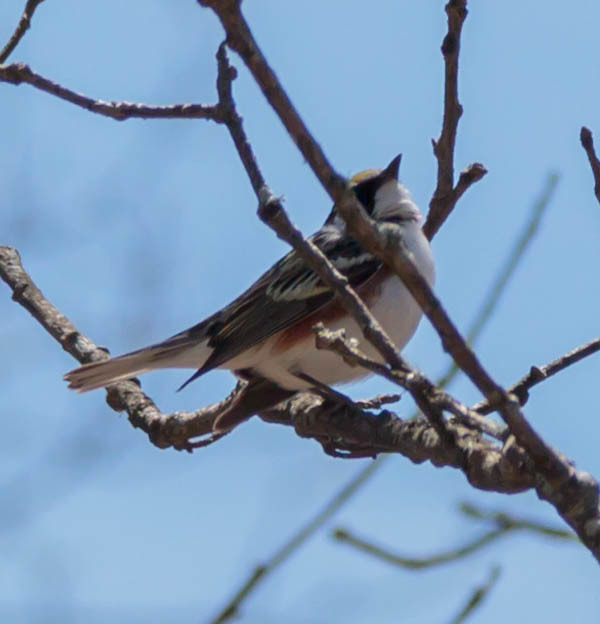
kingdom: Animalia
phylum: Chordata
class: Aves
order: Passeriformes
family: Parulidae
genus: Setophaga
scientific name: Setophaga pensylvanica
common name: Chestnut-sided warbler
